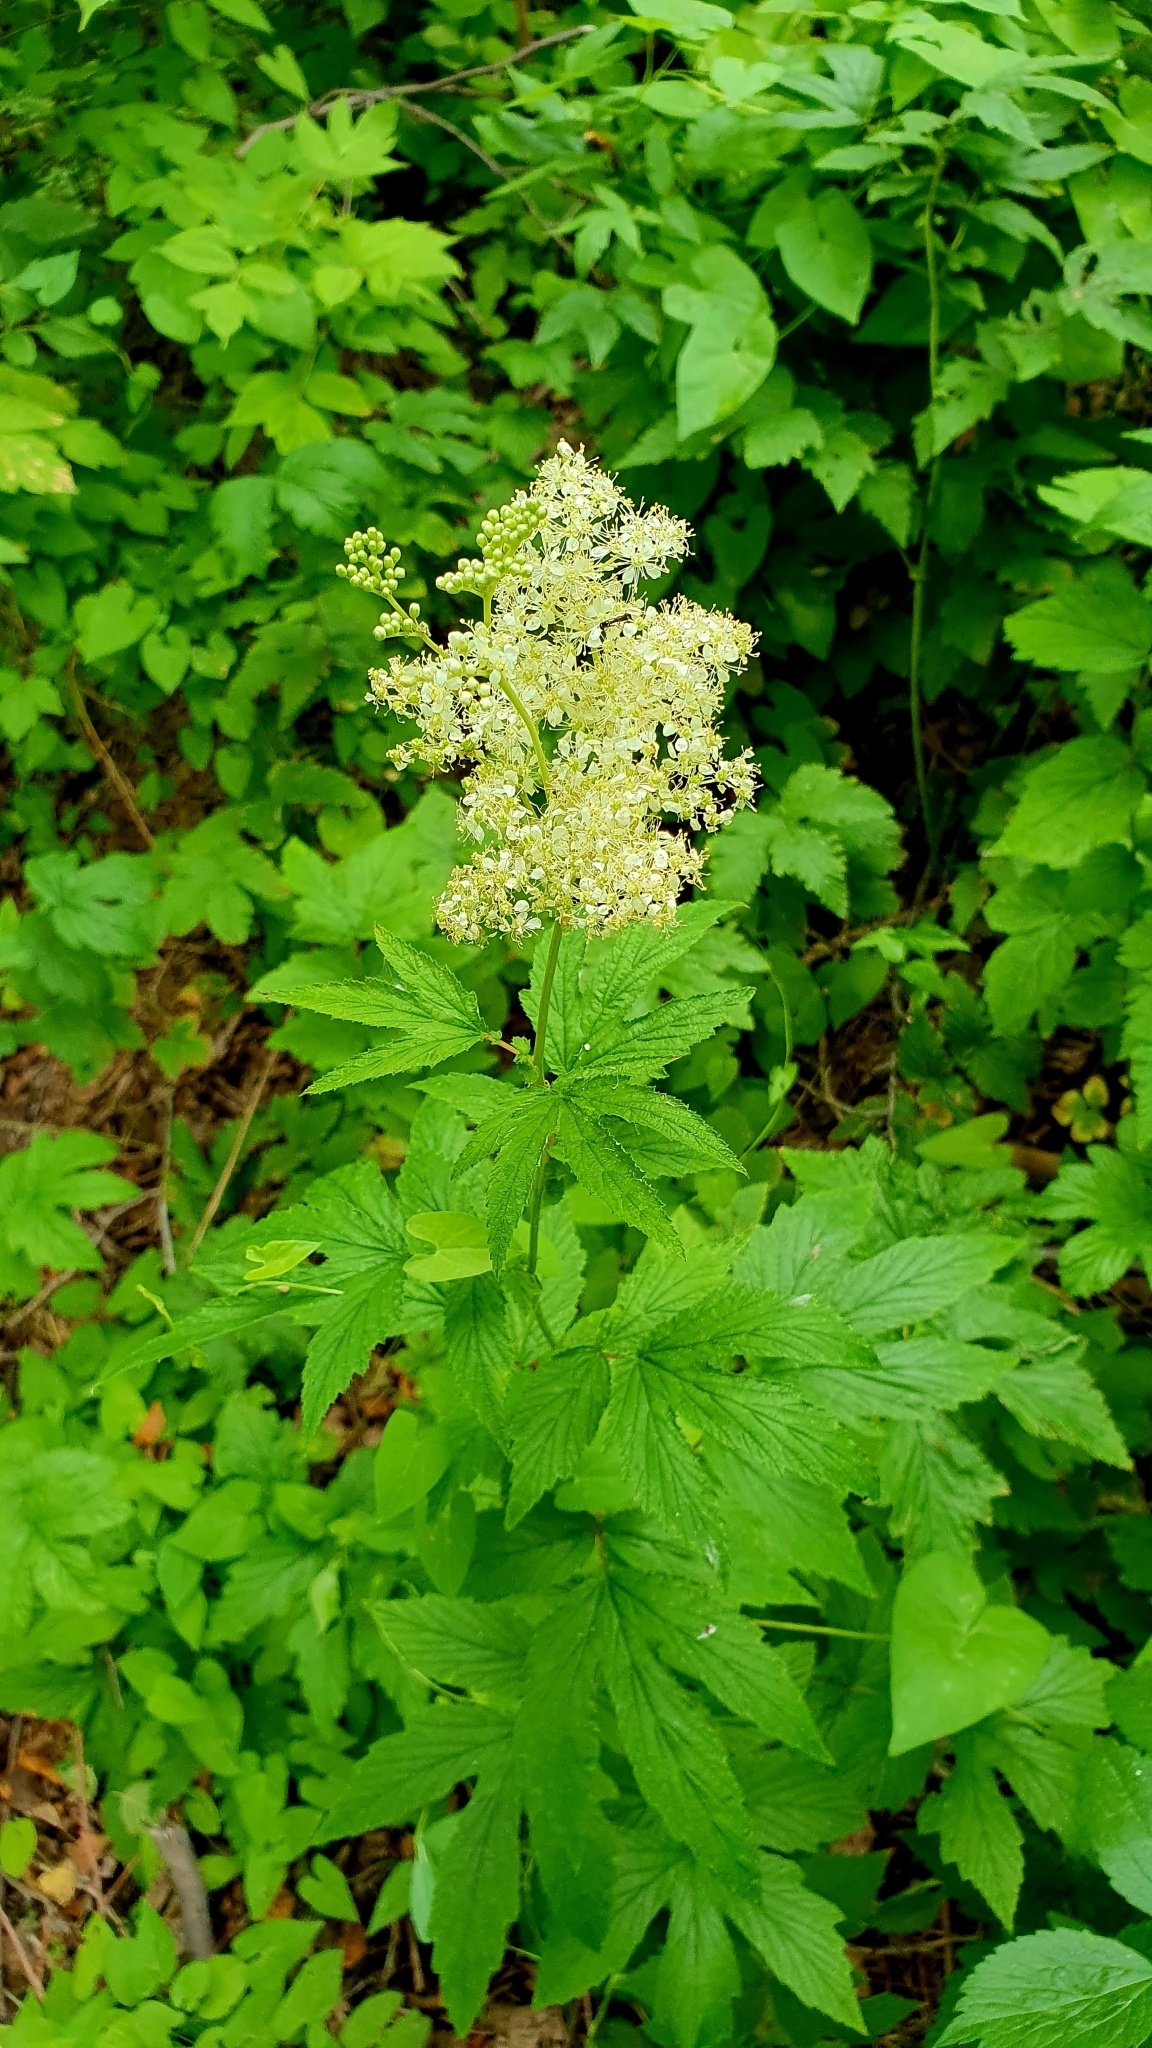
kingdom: Plantae
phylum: Tracheophyta
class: Magnoliopsida
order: Rosales
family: Rosaceae
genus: Filipendula
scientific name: Filipendula ulmaria
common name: Meadowsweet
